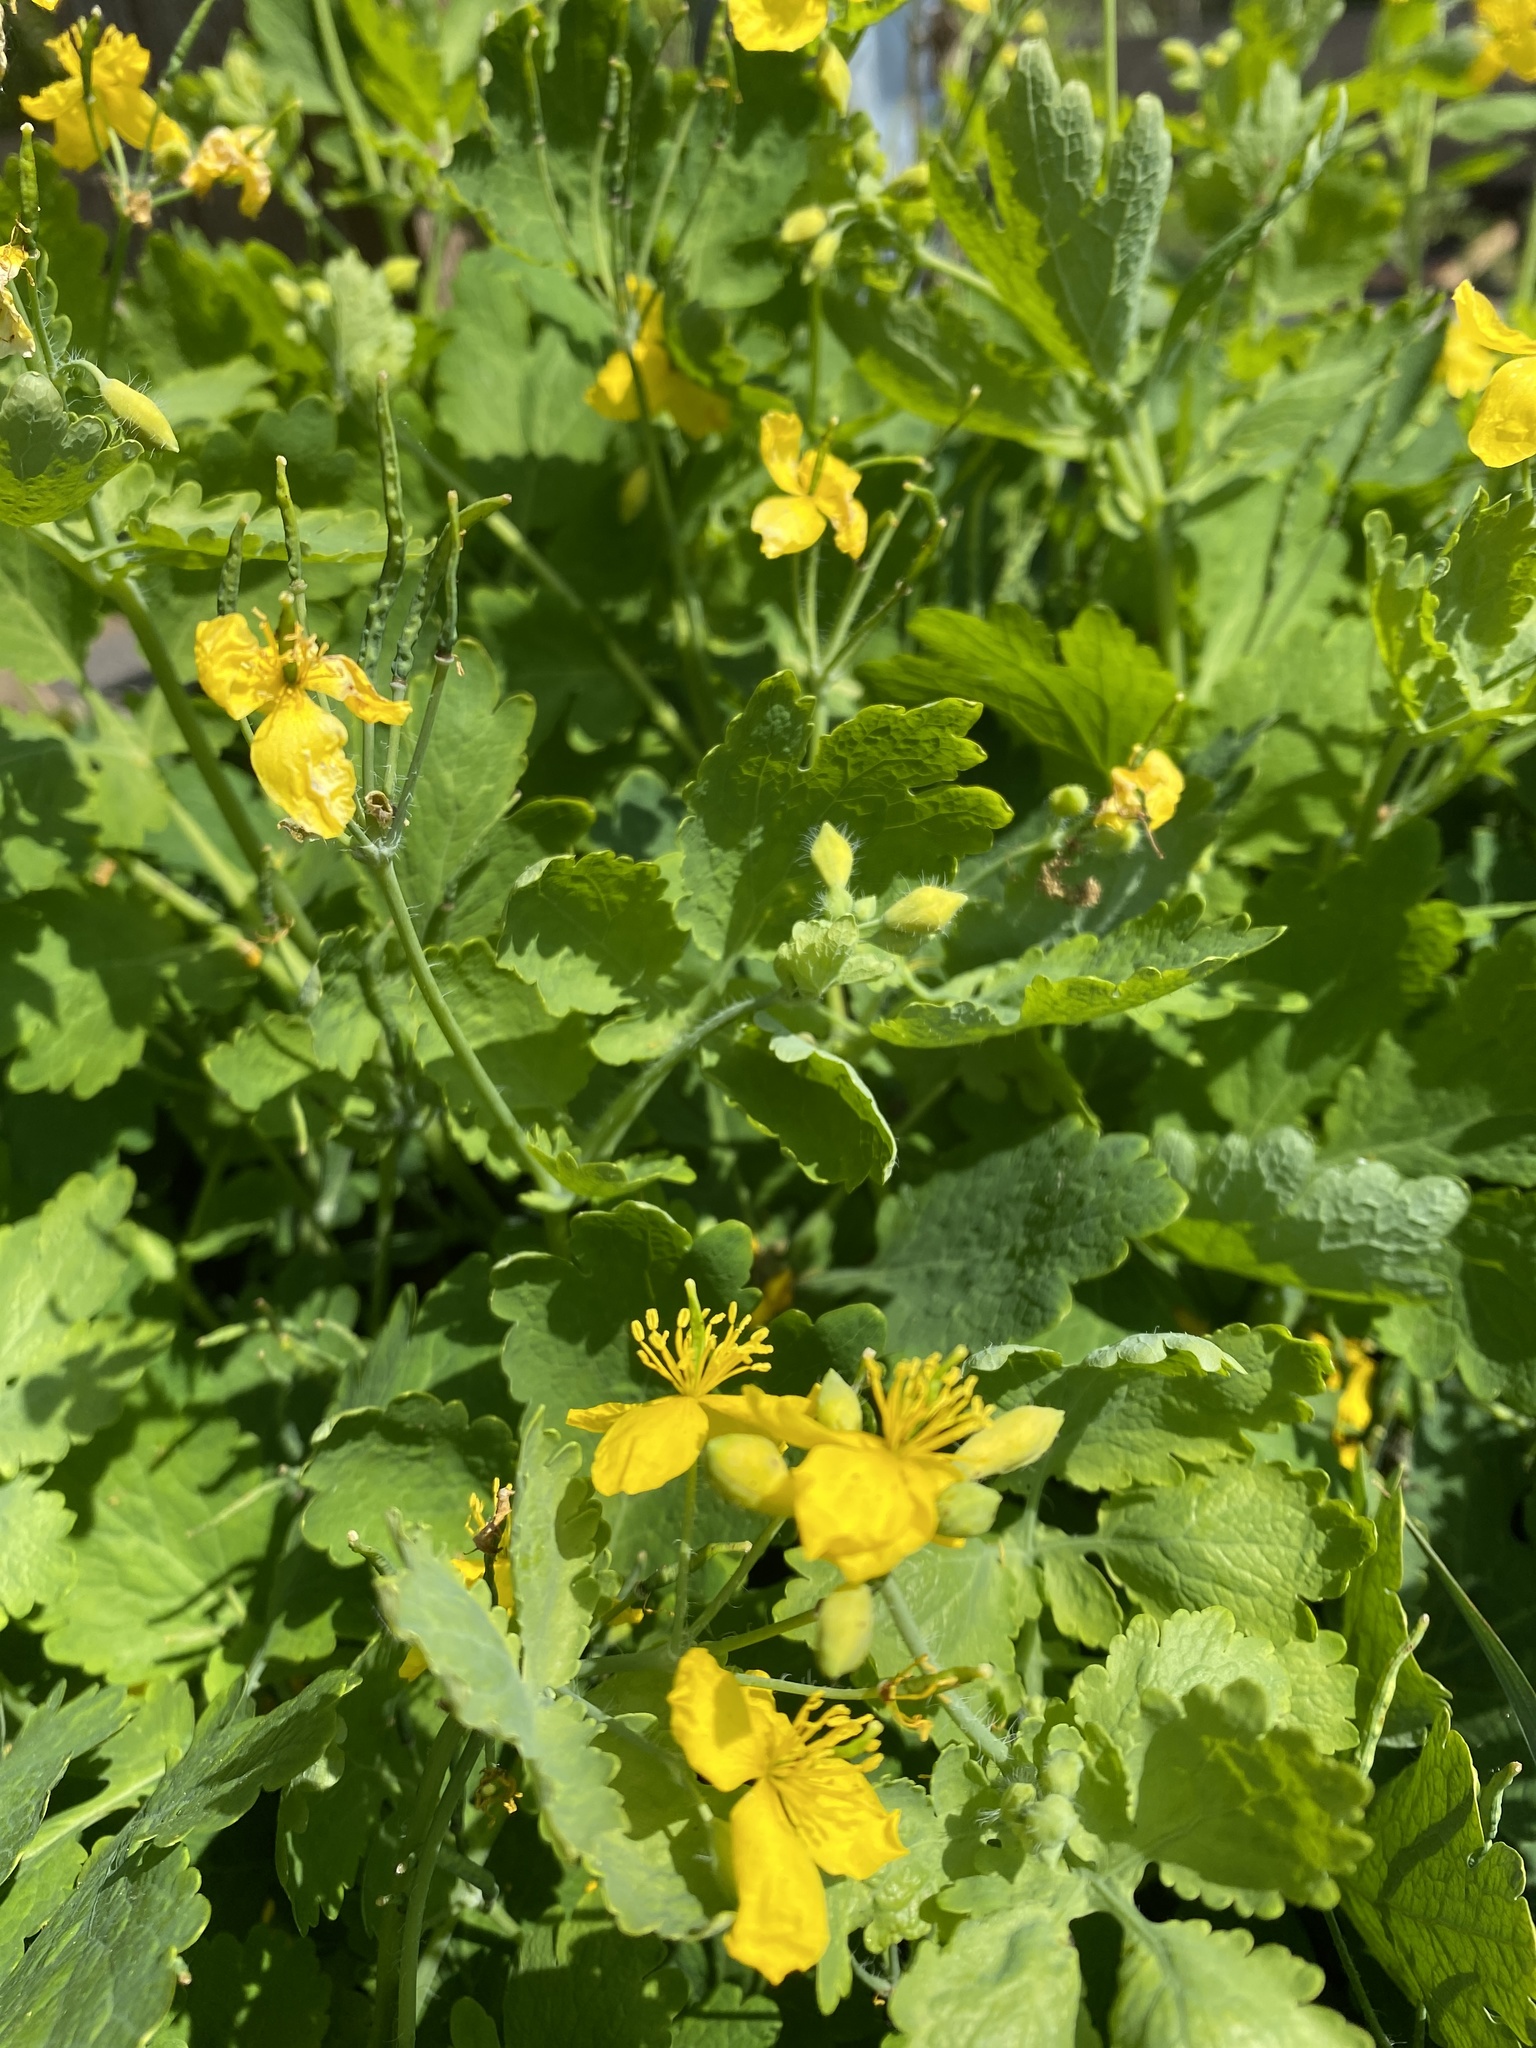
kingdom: Plantae
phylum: Tracheophyta
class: Magnoliopsida
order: Ranunculales
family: Papaveraceae
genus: Chelidonium
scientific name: Chelidonium majus
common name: Greater celandine
